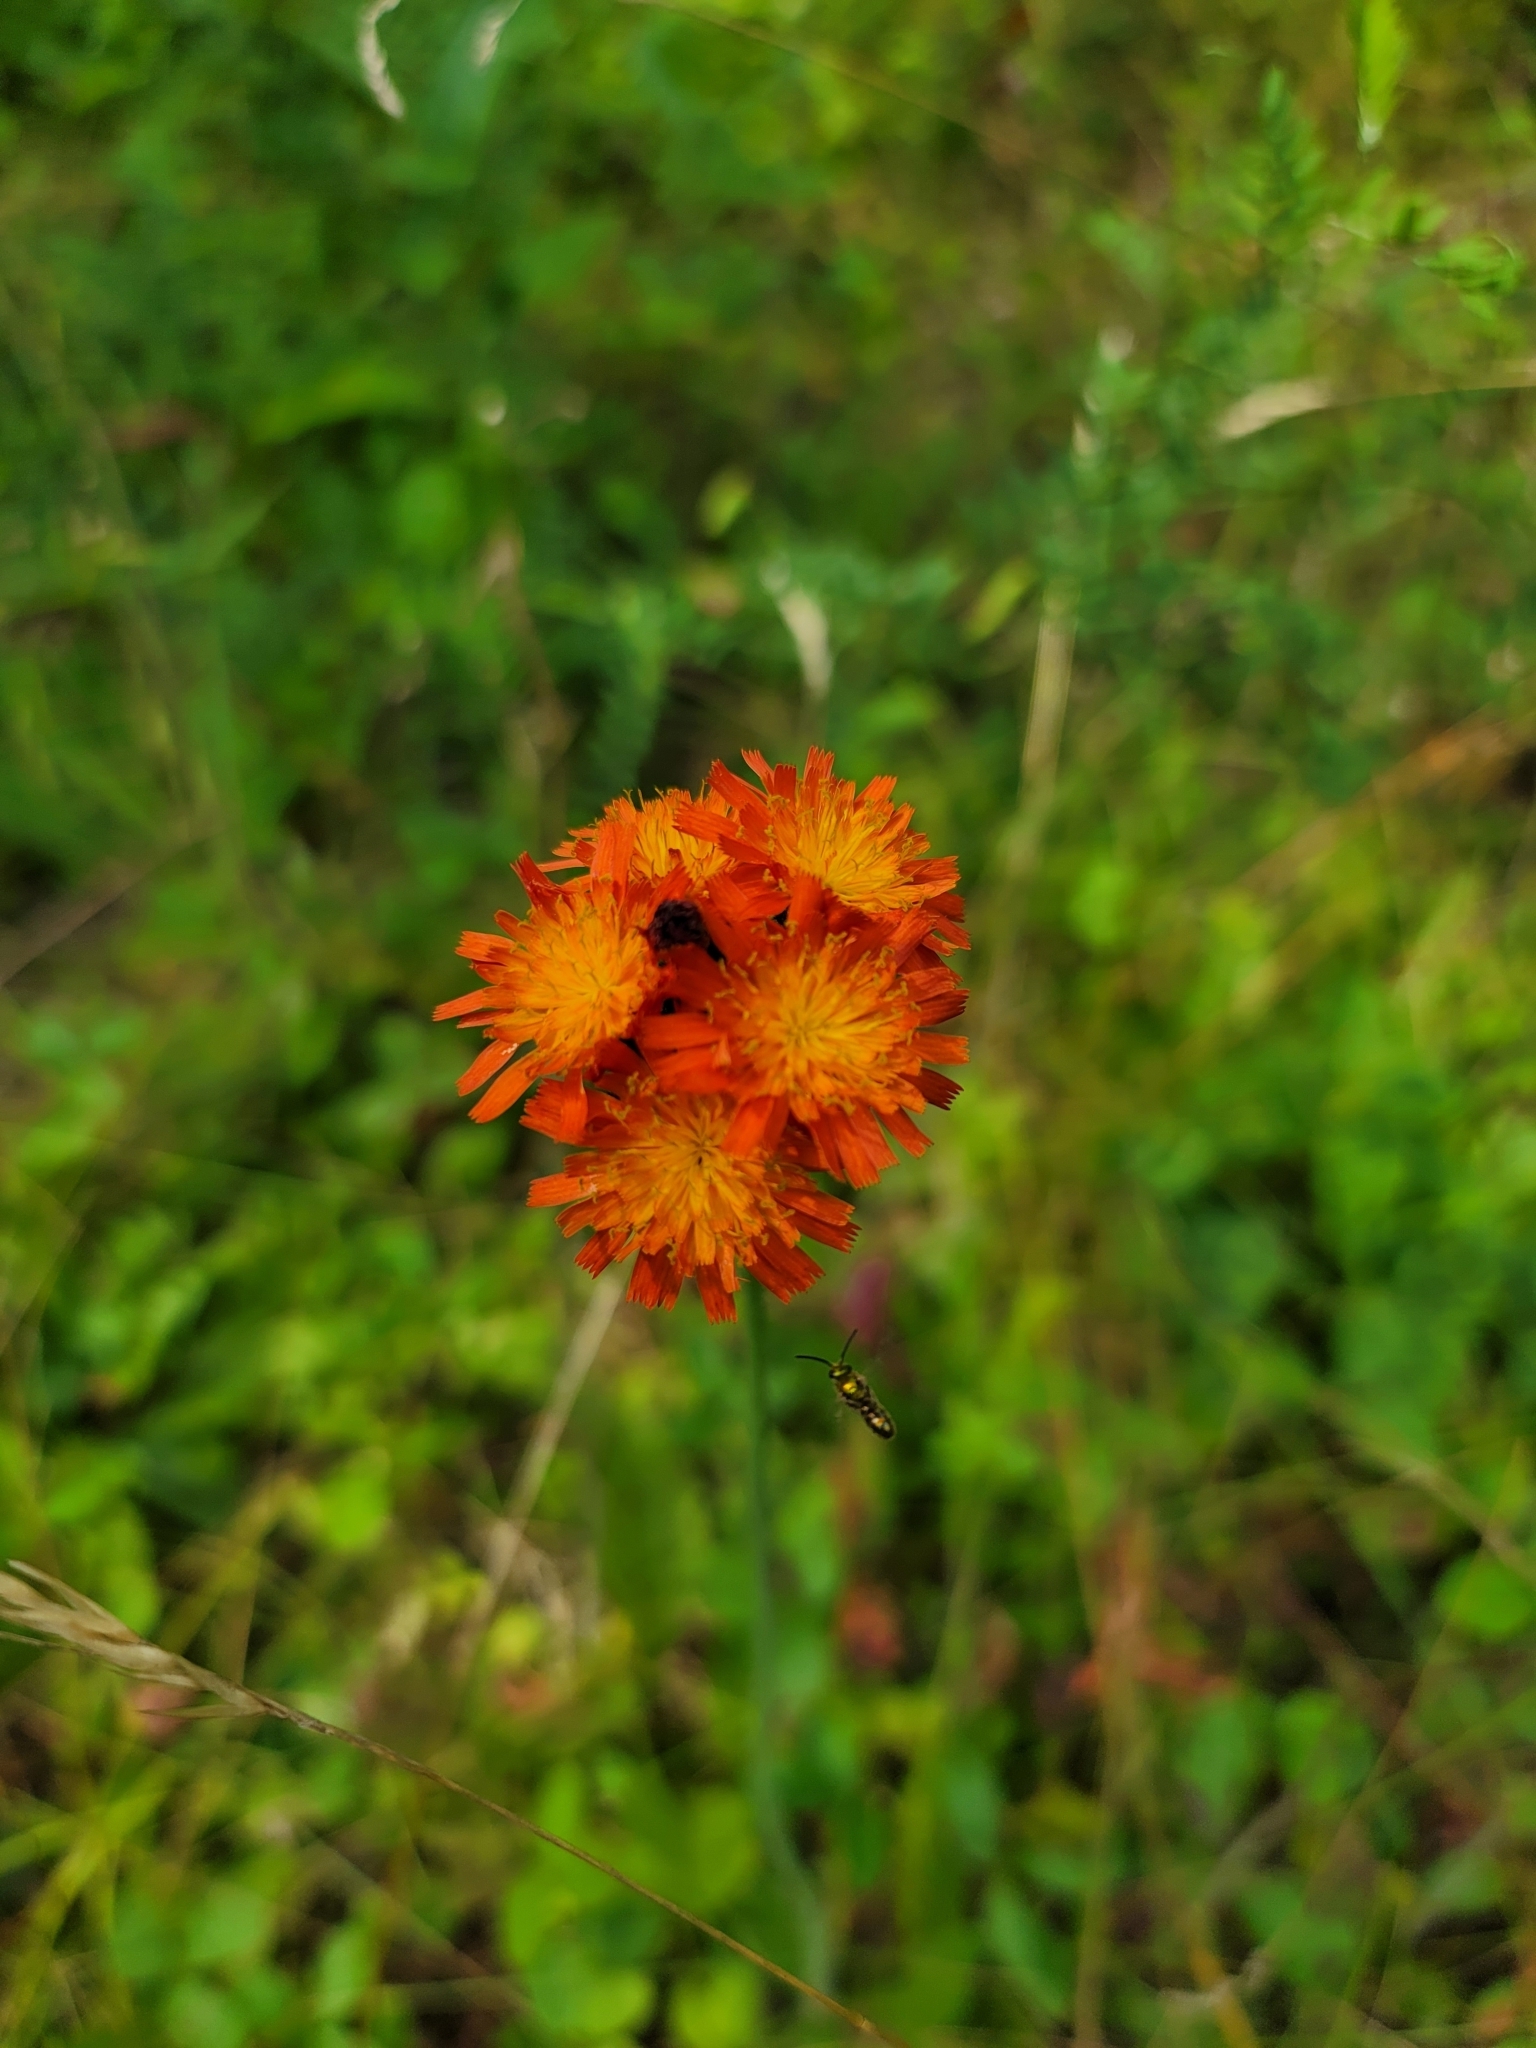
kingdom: Plantae
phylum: Tracheophyta
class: Magnoliopsida
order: Asterales
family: Asteraceae
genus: Pilosella
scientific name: Pilosella aurantiaca
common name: Fox-and-cubs
